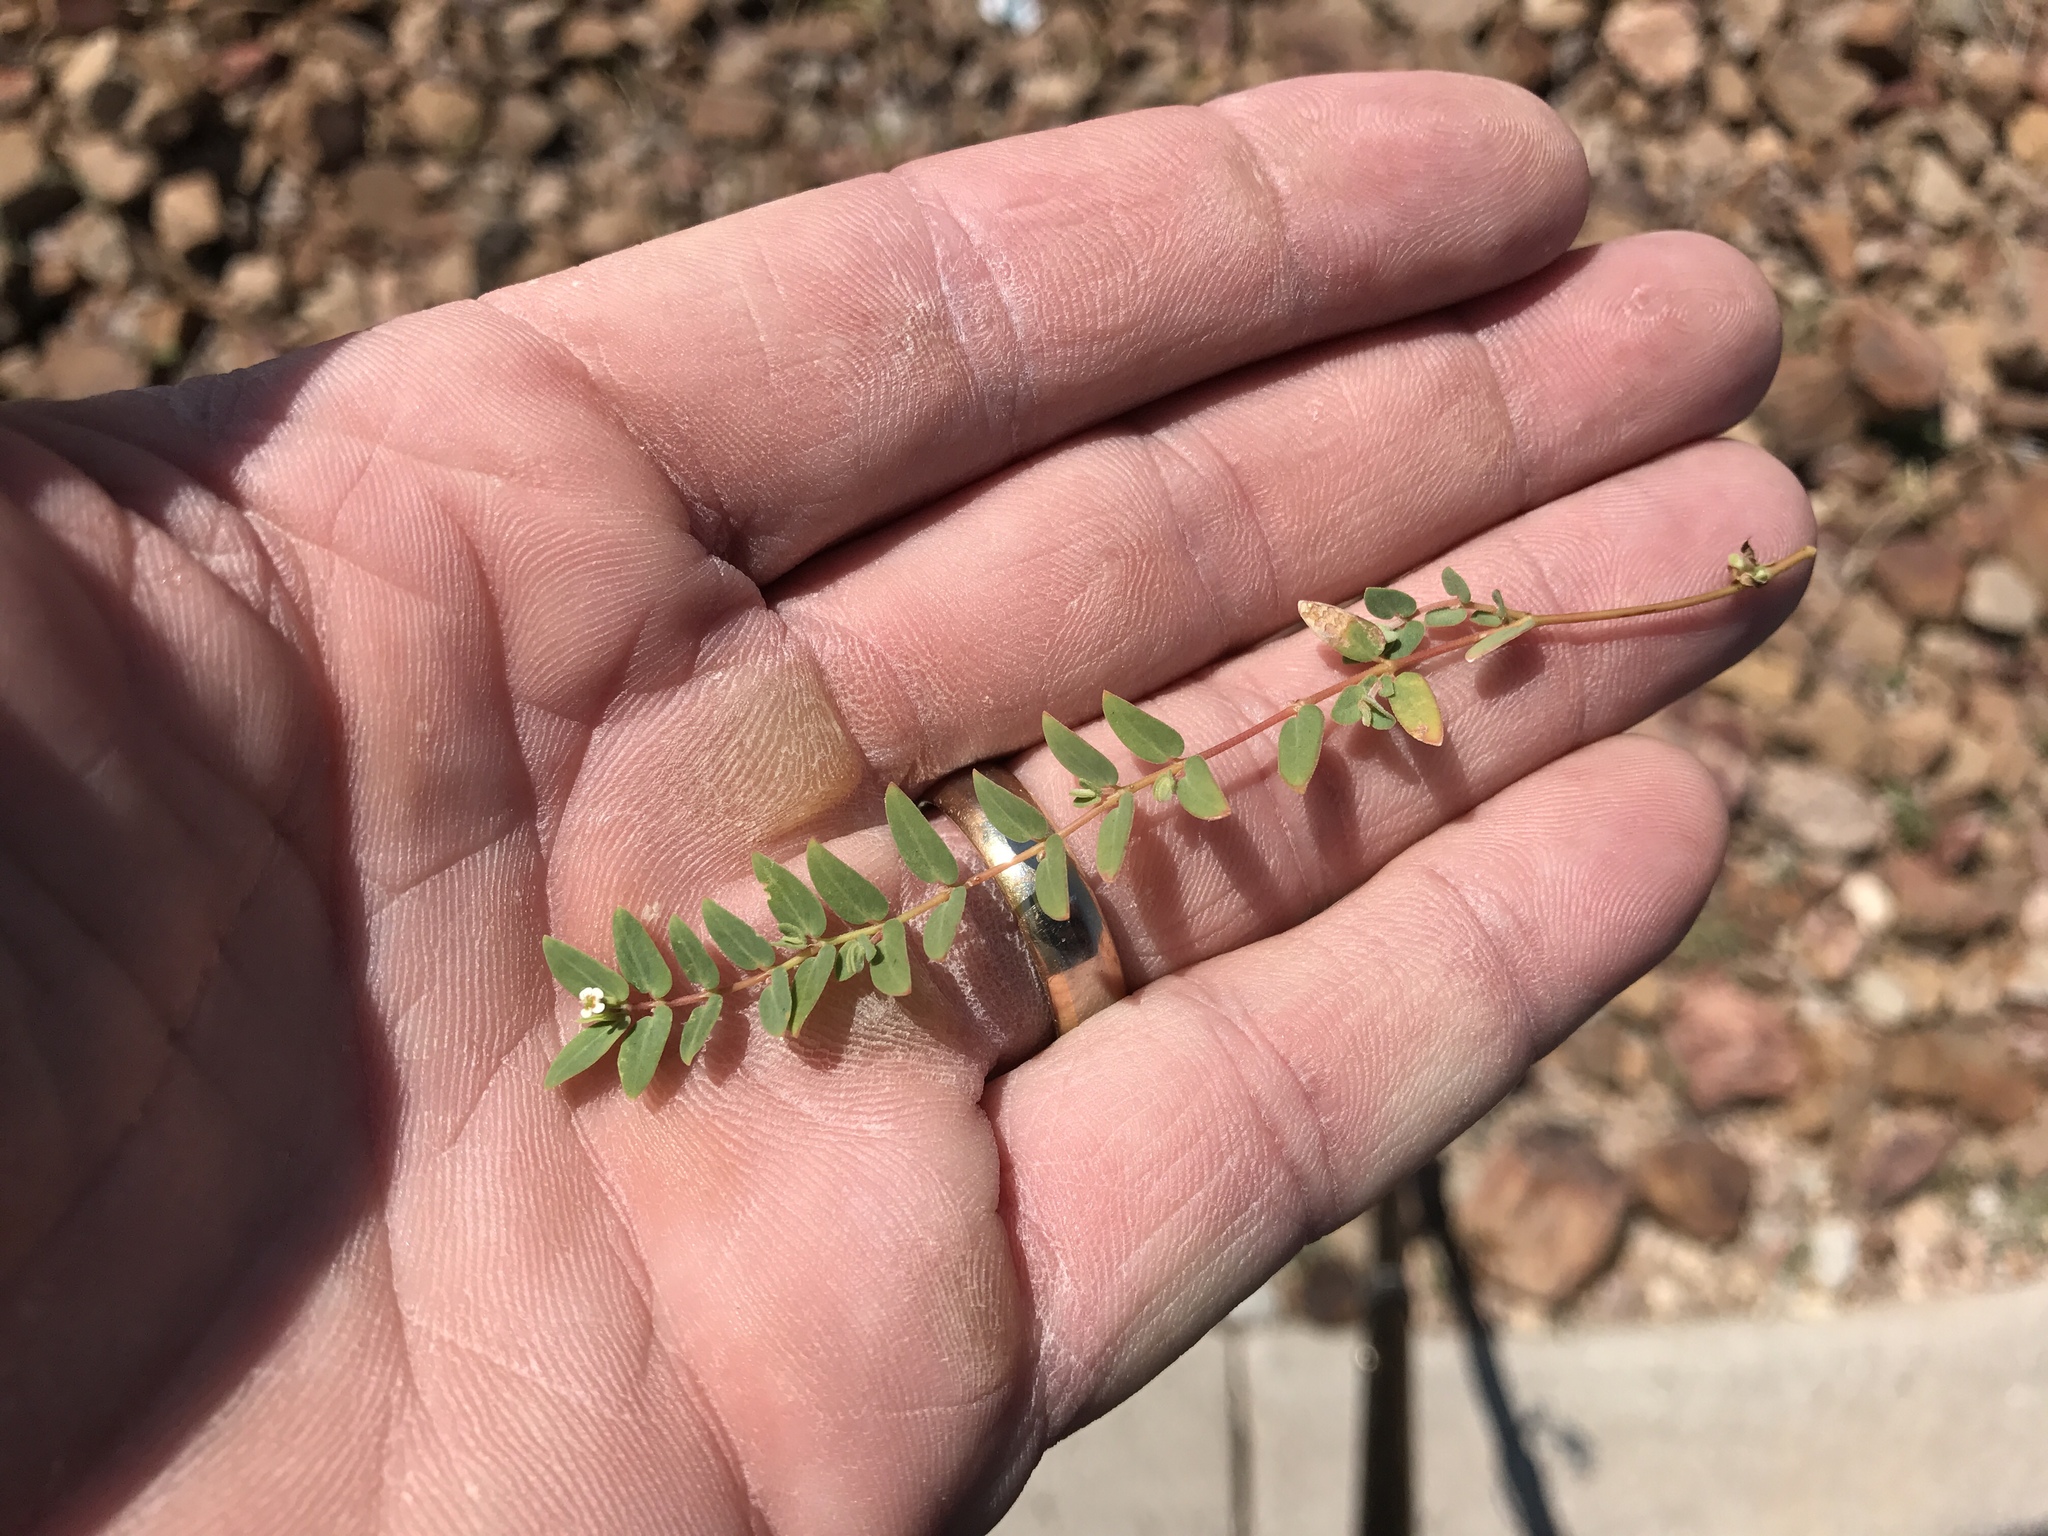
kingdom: Plantae
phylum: Tracheophyta
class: Magnoliopsida
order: Malpighiales
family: Euphorbiaceae
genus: Euphorbia
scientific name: Euphorbia capitellata
